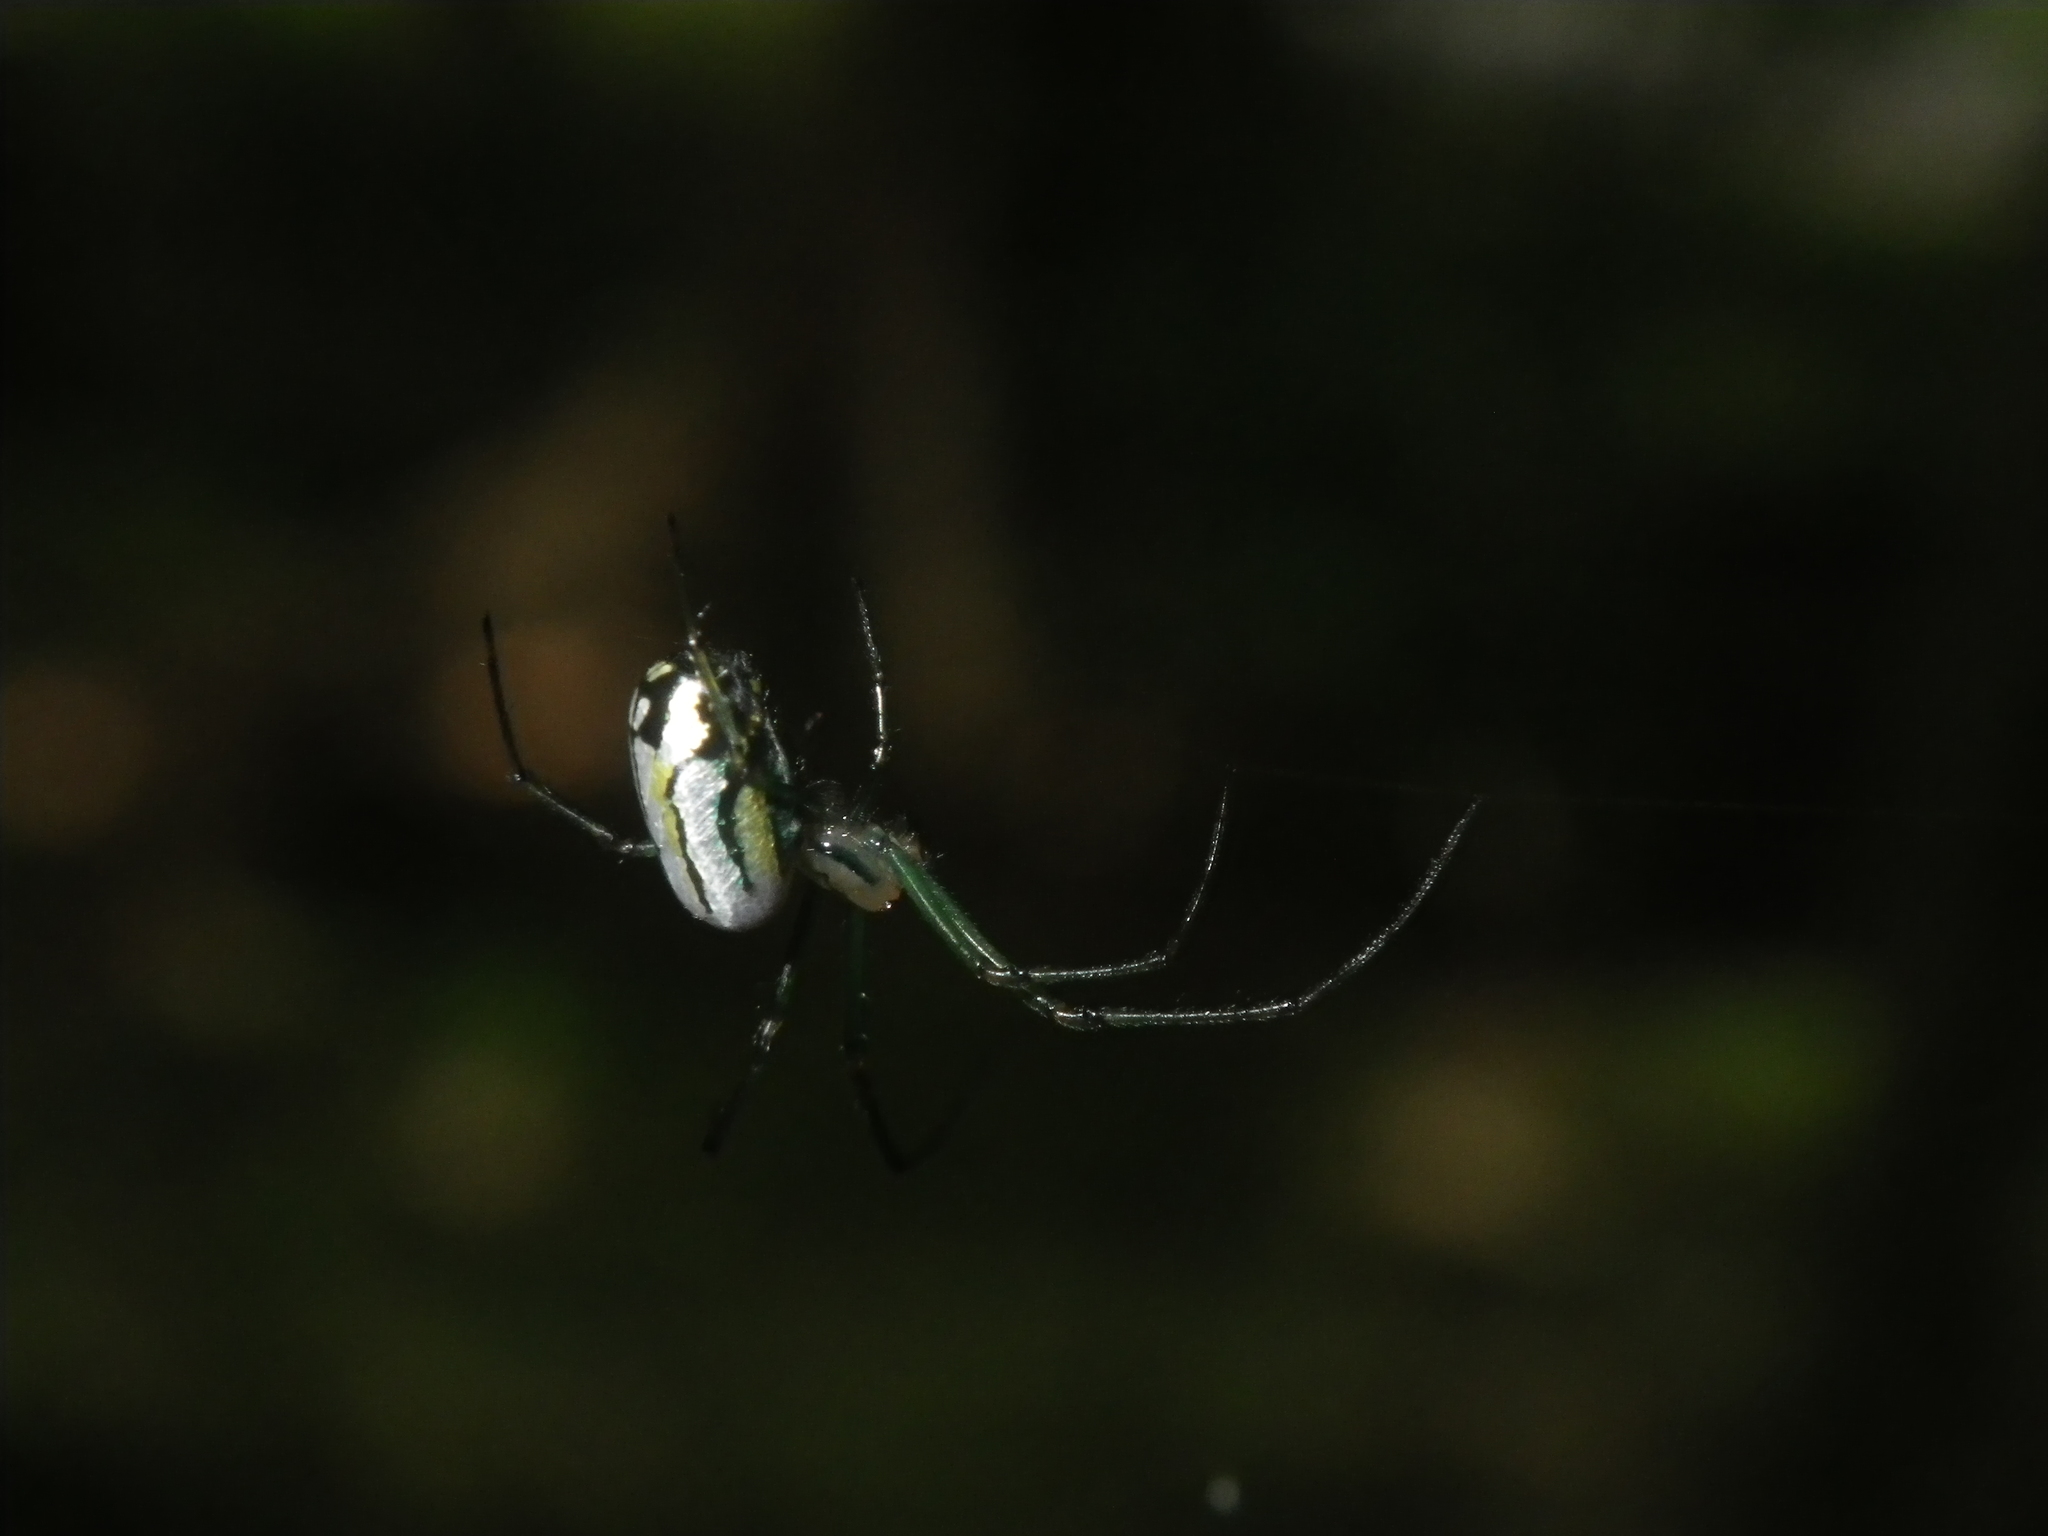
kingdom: Animalia
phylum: Arthropoda
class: Arachnida
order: Araneae
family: Tetragnathidae
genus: Leucauge
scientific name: Leucauge venusta
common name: Longjawed orb weavers
